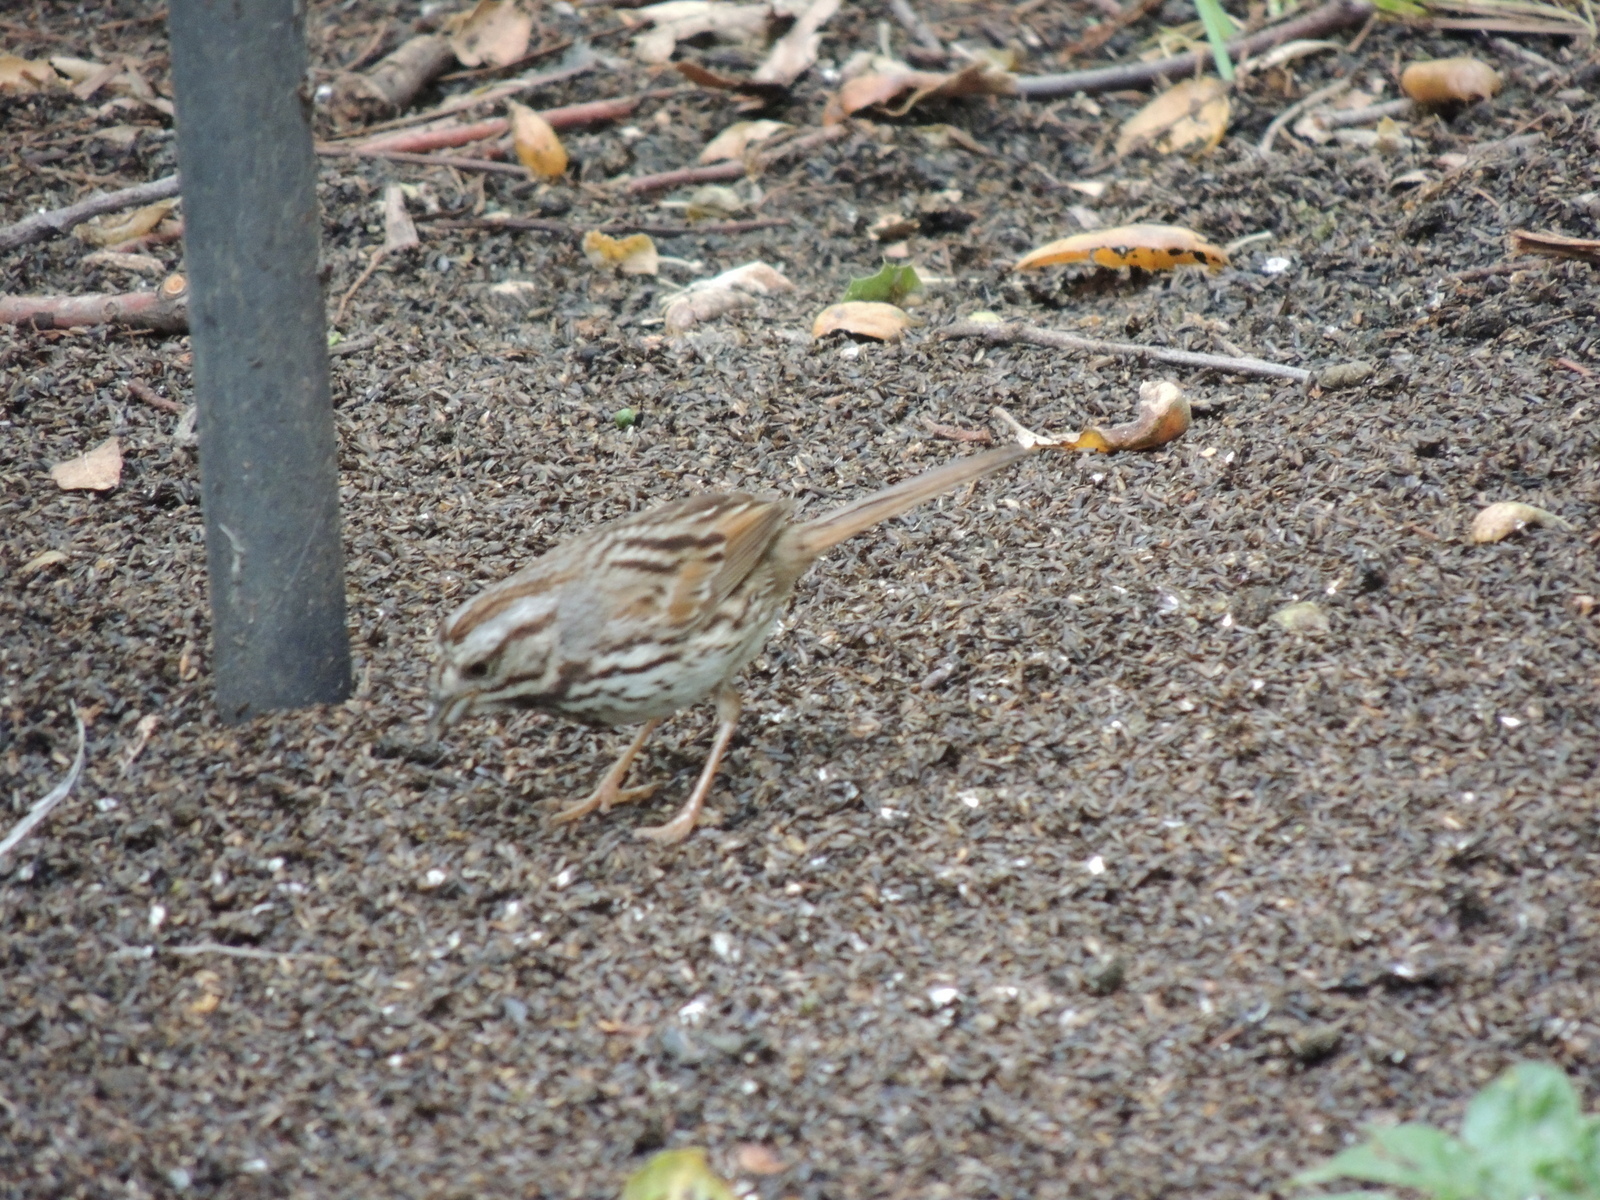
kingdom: Animalia
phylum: Chordata
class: Aves
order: Passeriformes
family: Passerellidae
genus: Melospiza
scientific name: Melospiza melodia
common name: Song sparrow
